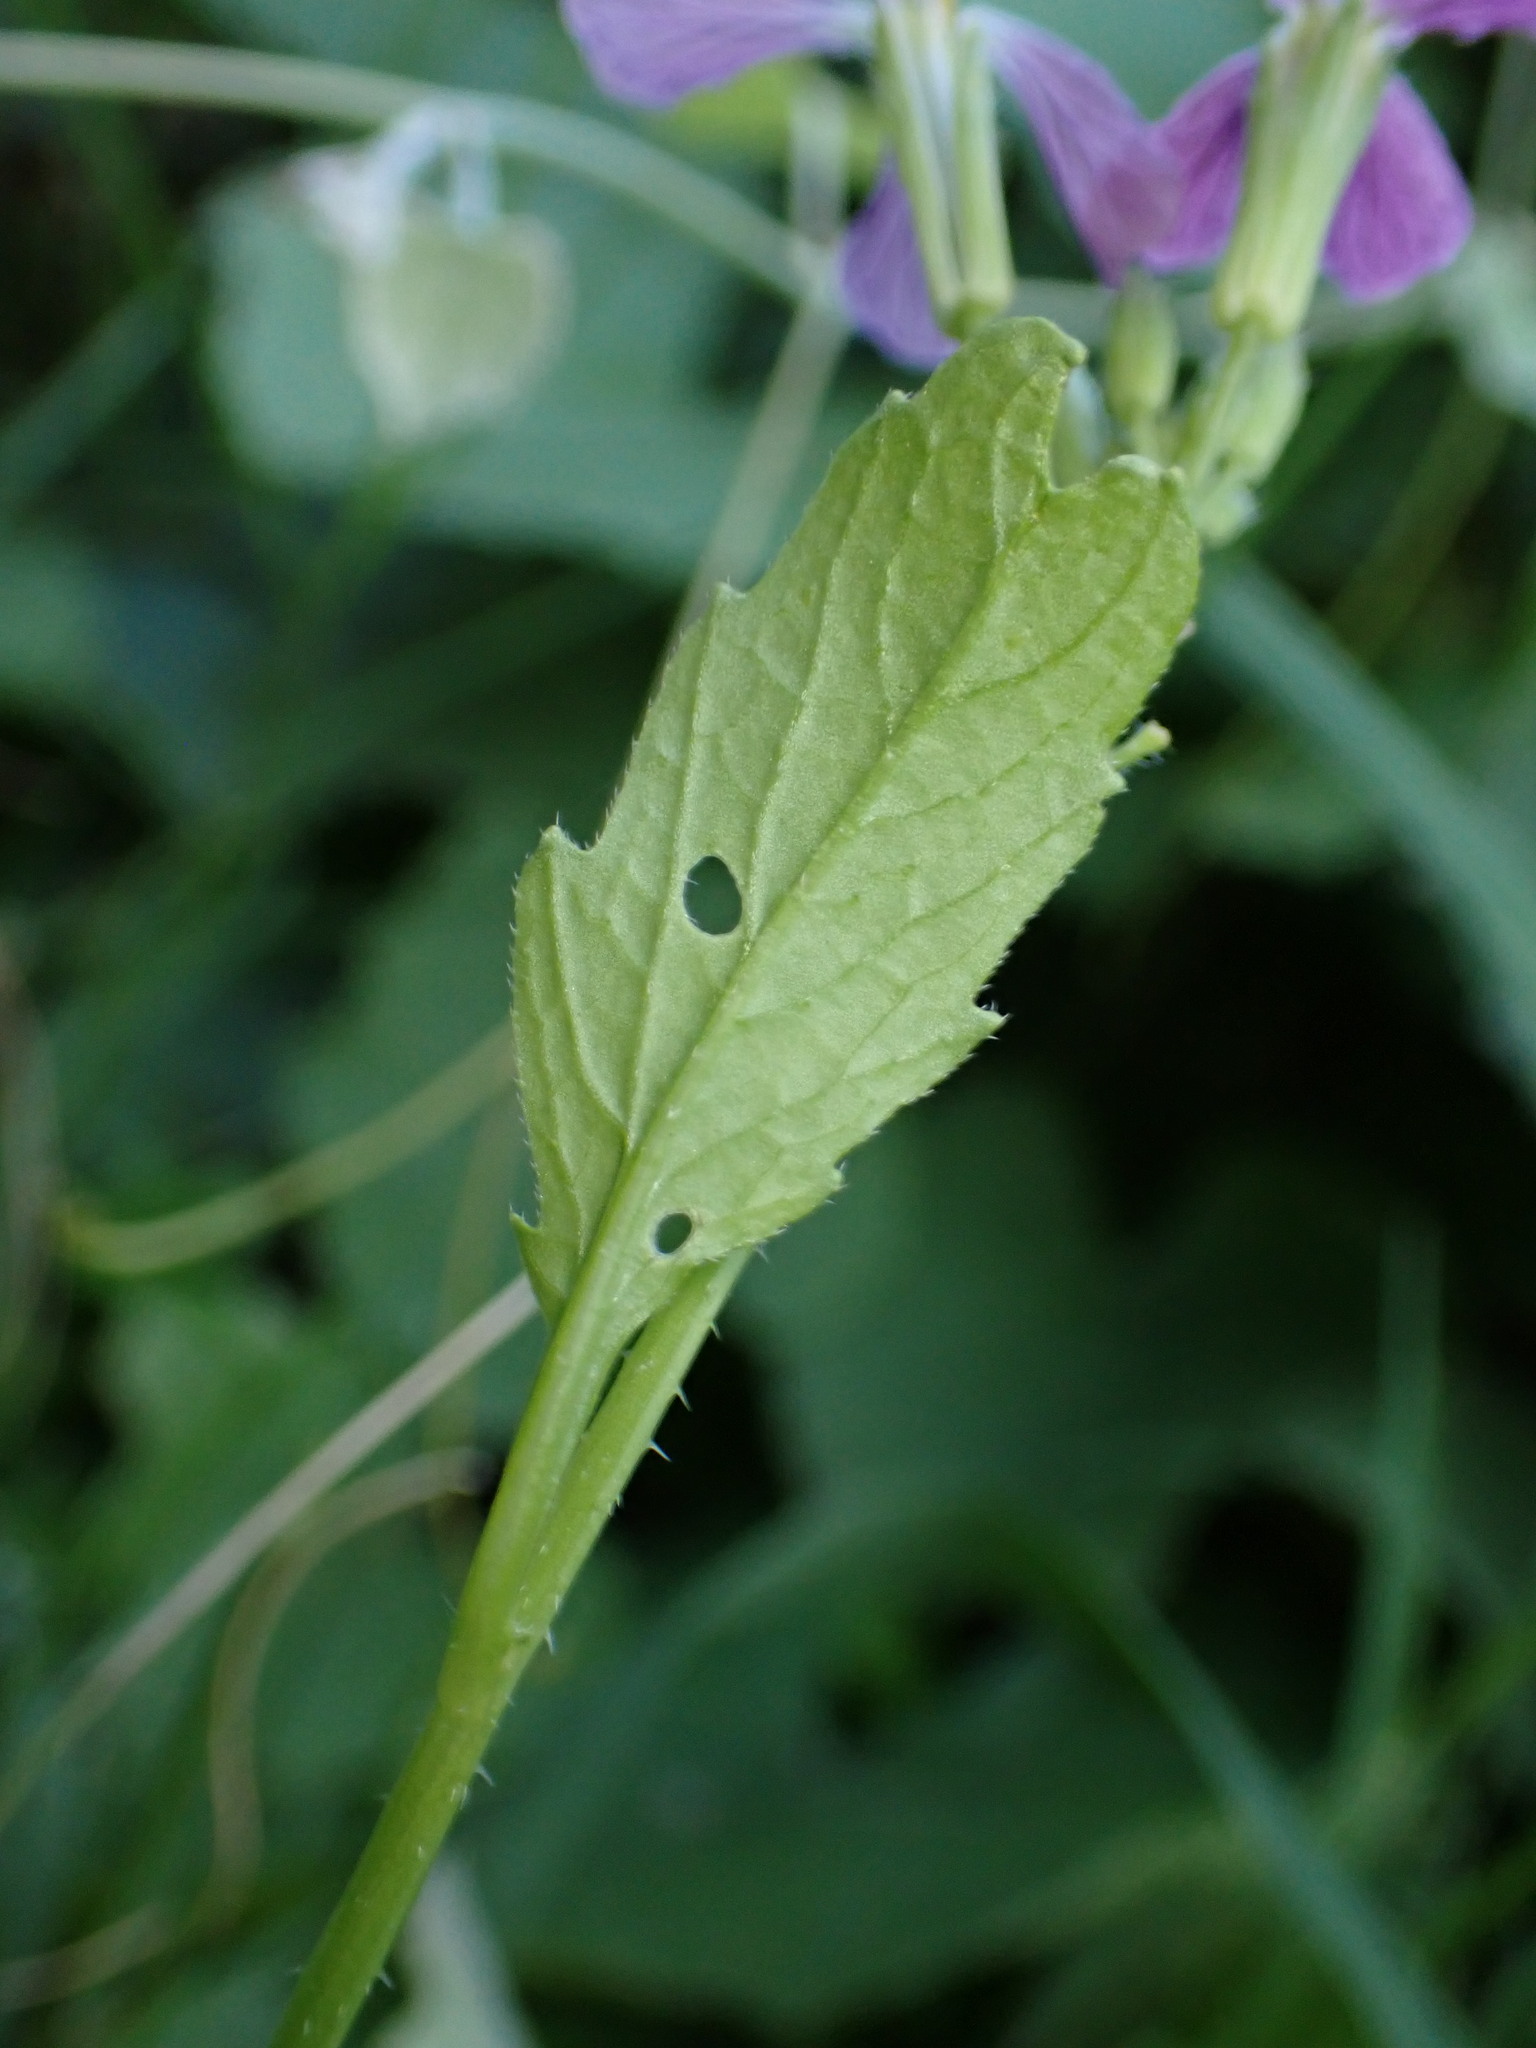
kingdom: Plantae
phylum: Tracheophyta
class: Magnoliopsida
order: Brassicales
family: Brassicaceae
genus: Raphanus
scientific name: Raphanus sativus
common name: Cultivated radish
